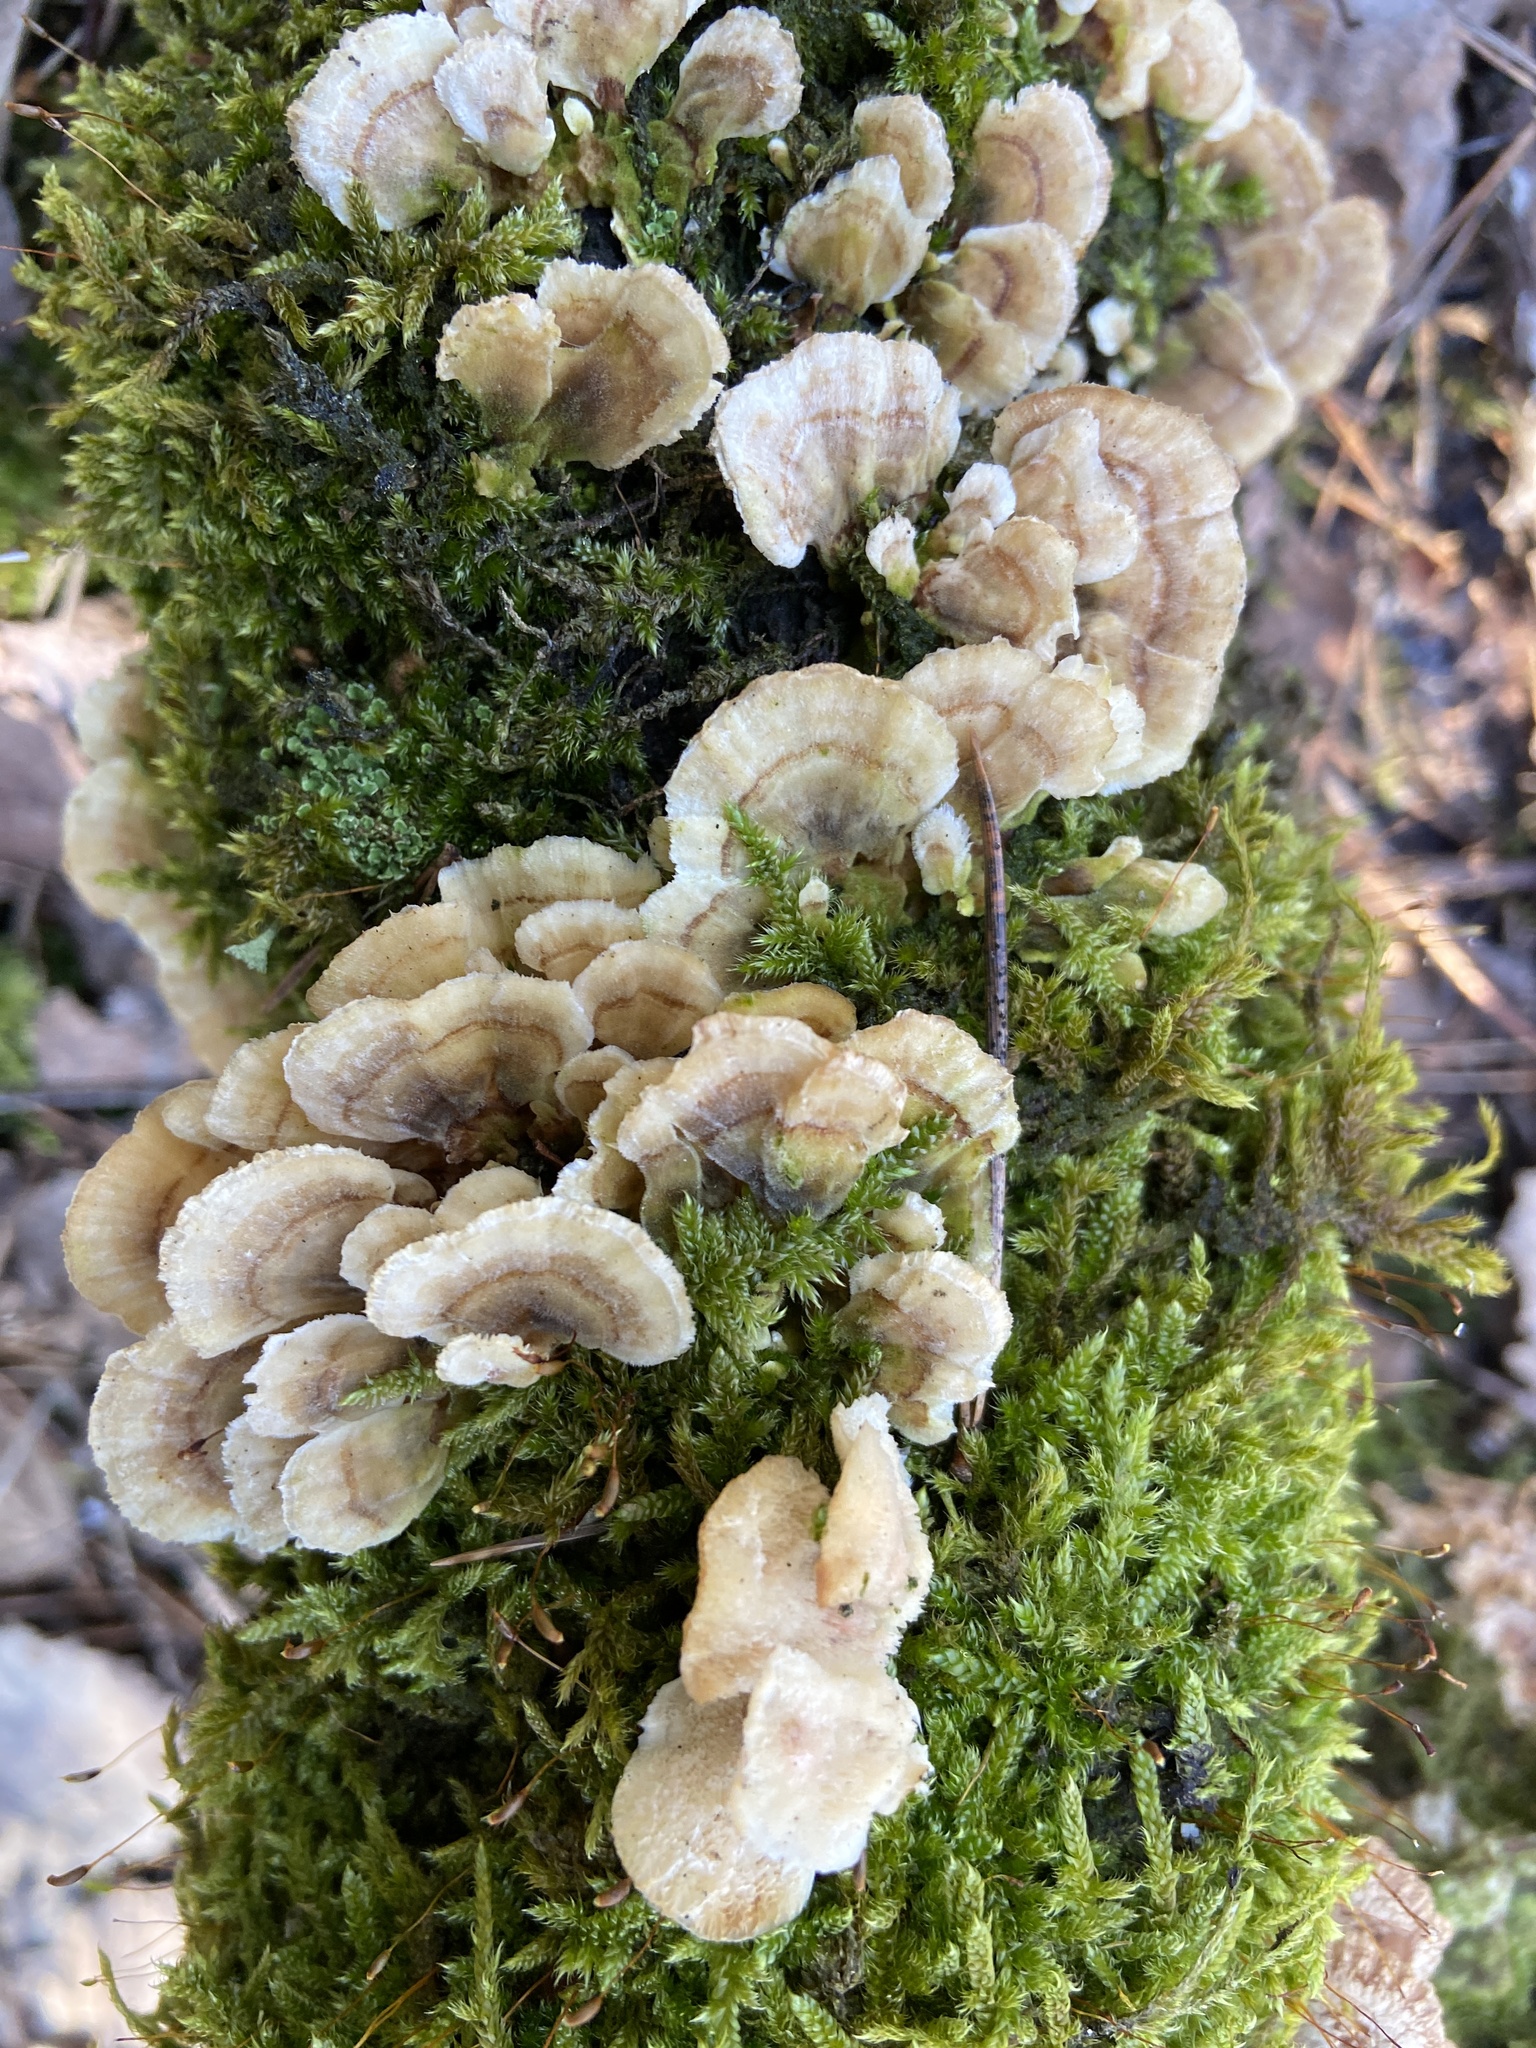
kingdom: Fungi
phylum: Basidiomycota
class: Agaricomycetes
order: Polyporales
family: Polyporaceae
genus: Trametes
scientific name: Trametes ochracea
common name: Ochre bracket
